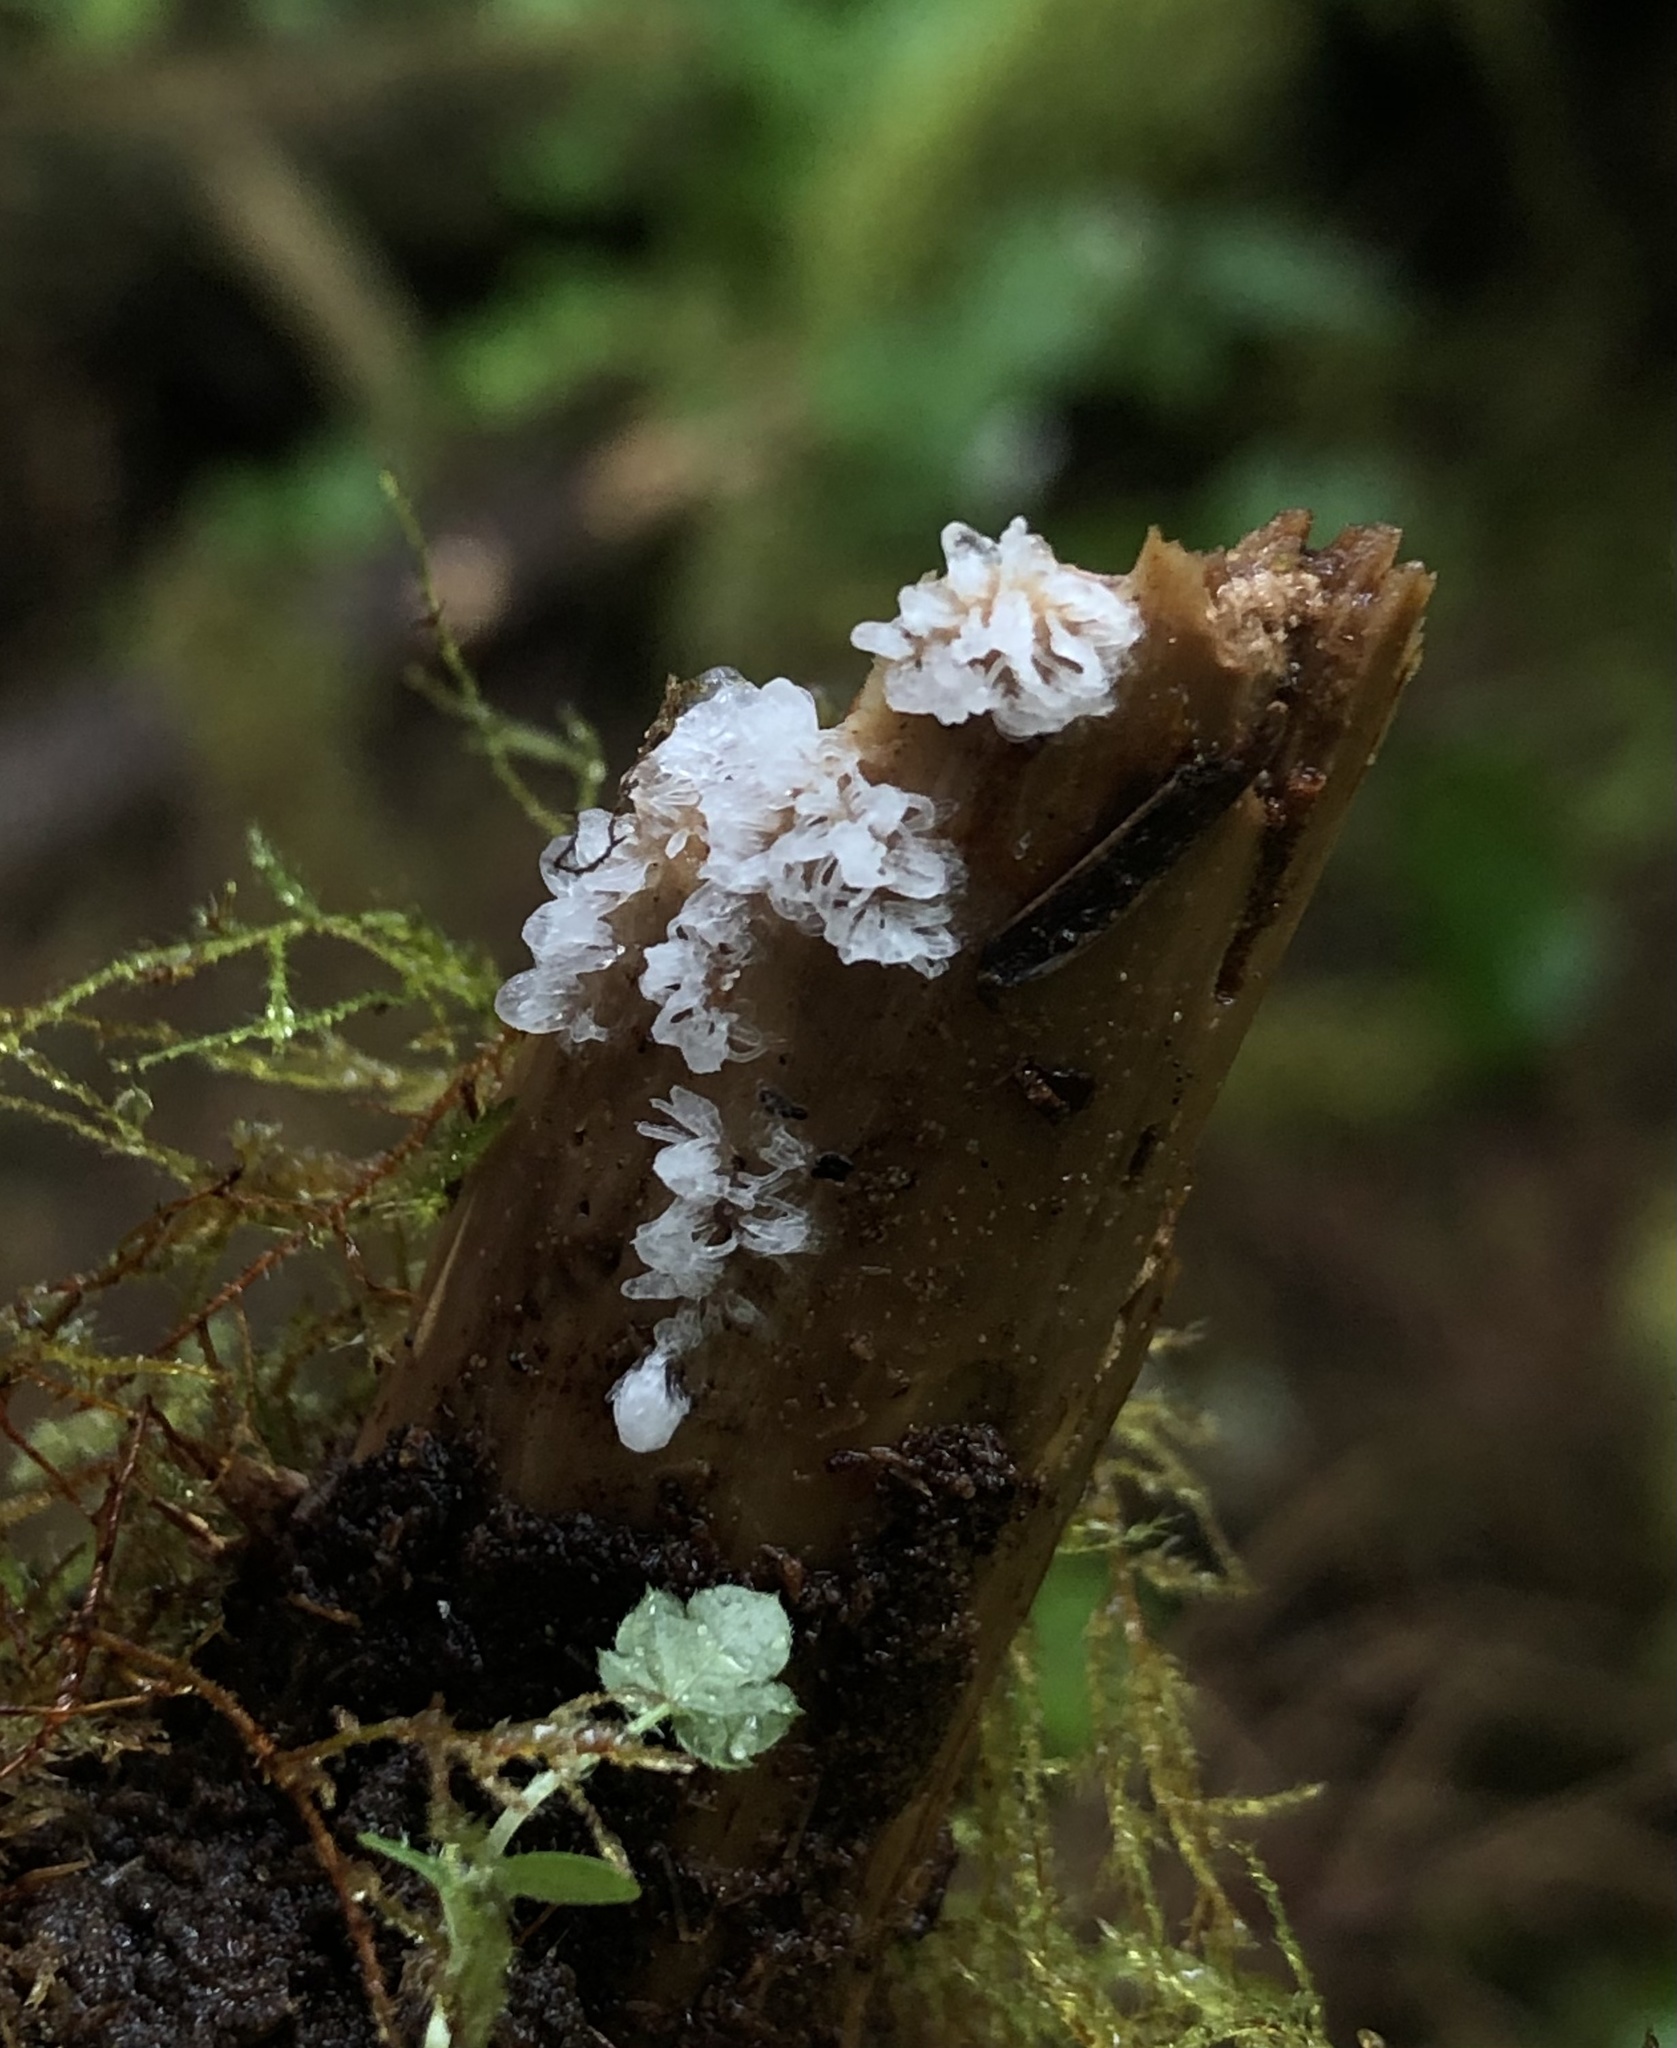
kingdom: Protozoa
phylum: Mycetozoa
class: Protosteliomycetes
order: Ceratiomyxales
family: Ceratiomyxaceae
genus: Ceratiomyxa
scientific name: Ceratiomyxa fruticulosa
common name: Honeycomb coral slime mold
